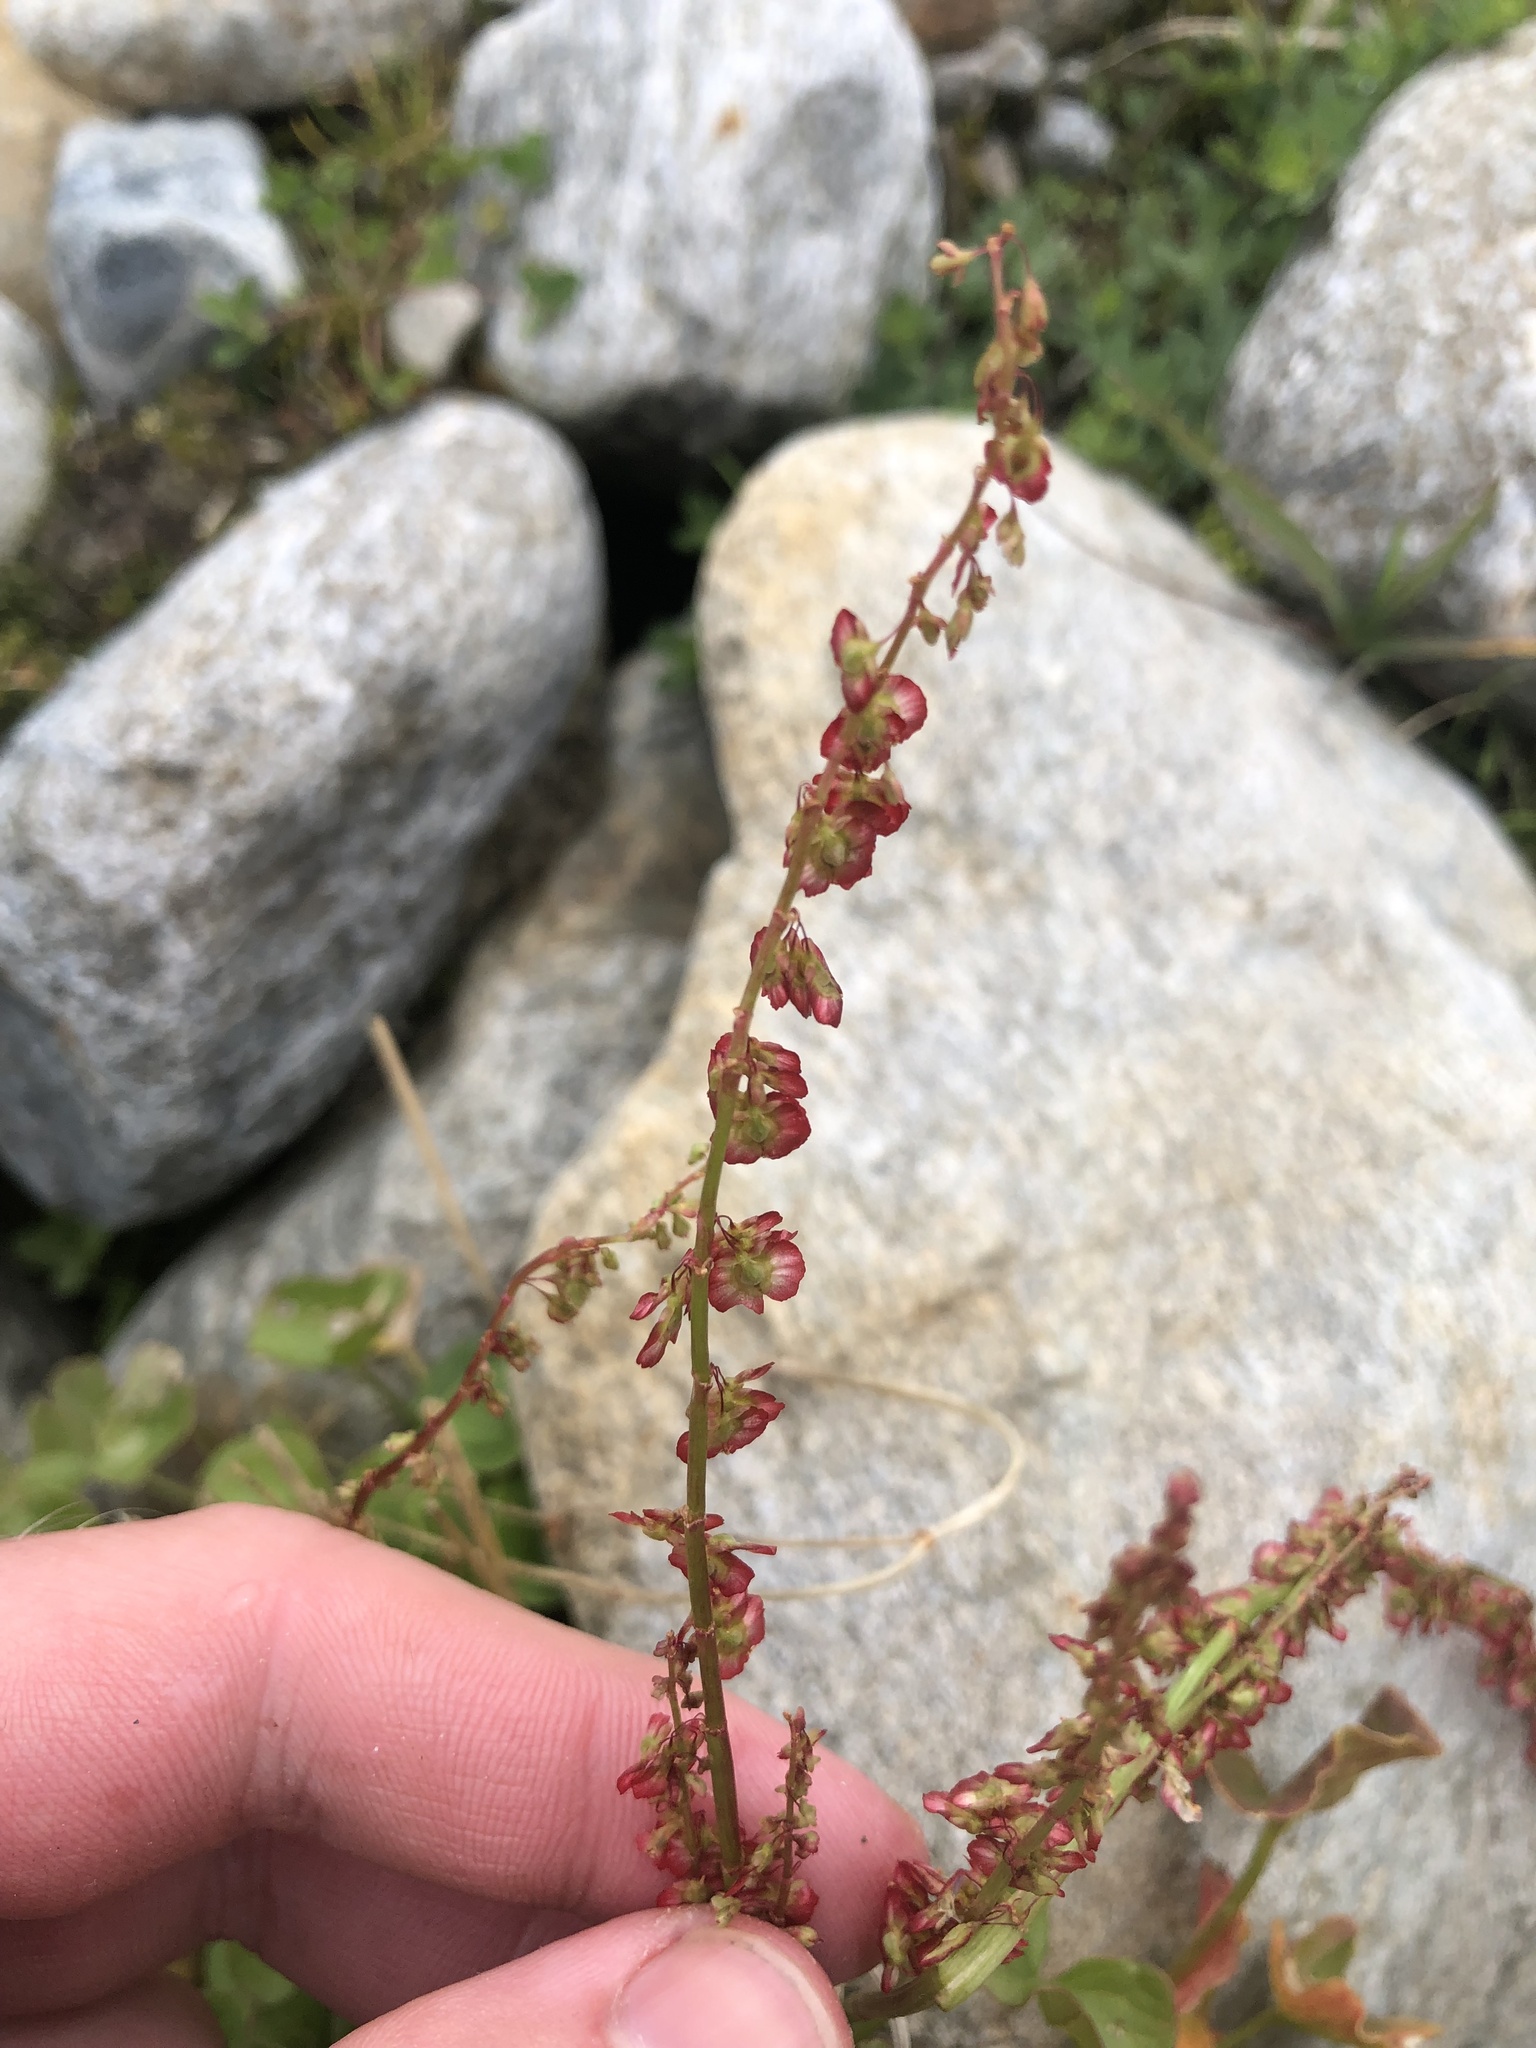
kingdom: Plantae
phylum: Tracheophyta
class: Magnoliopsida
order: Caryophyllales
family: Polygonaceae
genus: Oxyria
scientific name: Oxyria digyna
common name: Alpine mountain-sorrel
